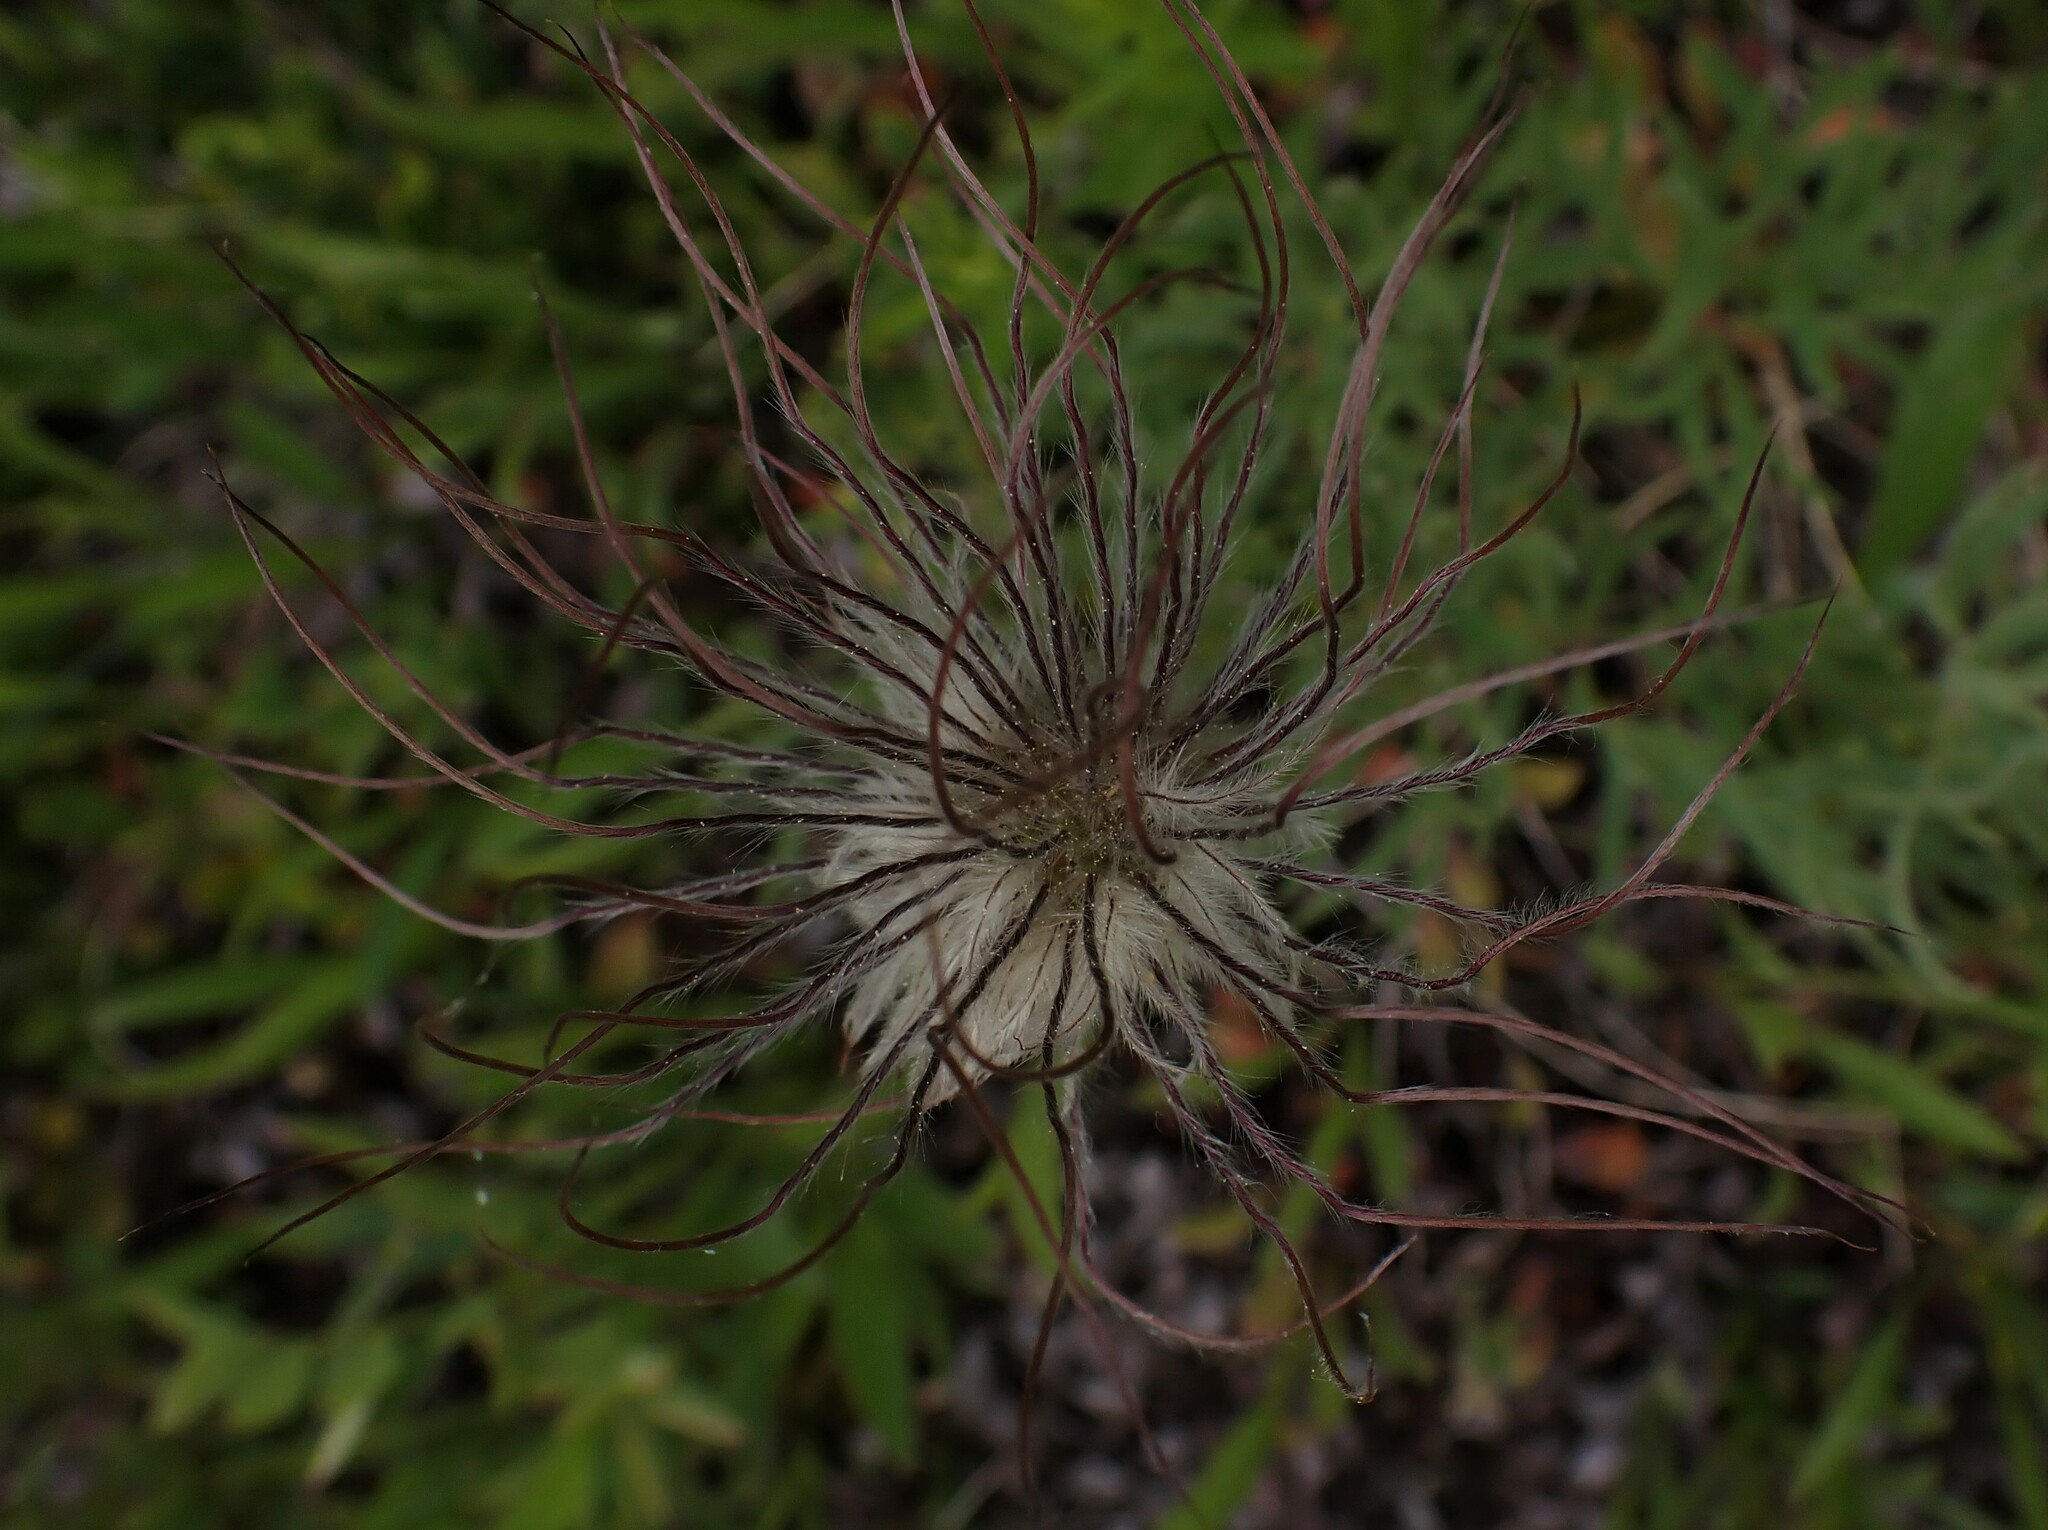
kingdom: Plantae
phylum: Tracheophyta
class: Magnoliopsida
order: Ranunculales
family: Ranunculaceae
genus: Pulsatilla
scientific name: Pulsatilla nuttalliana
